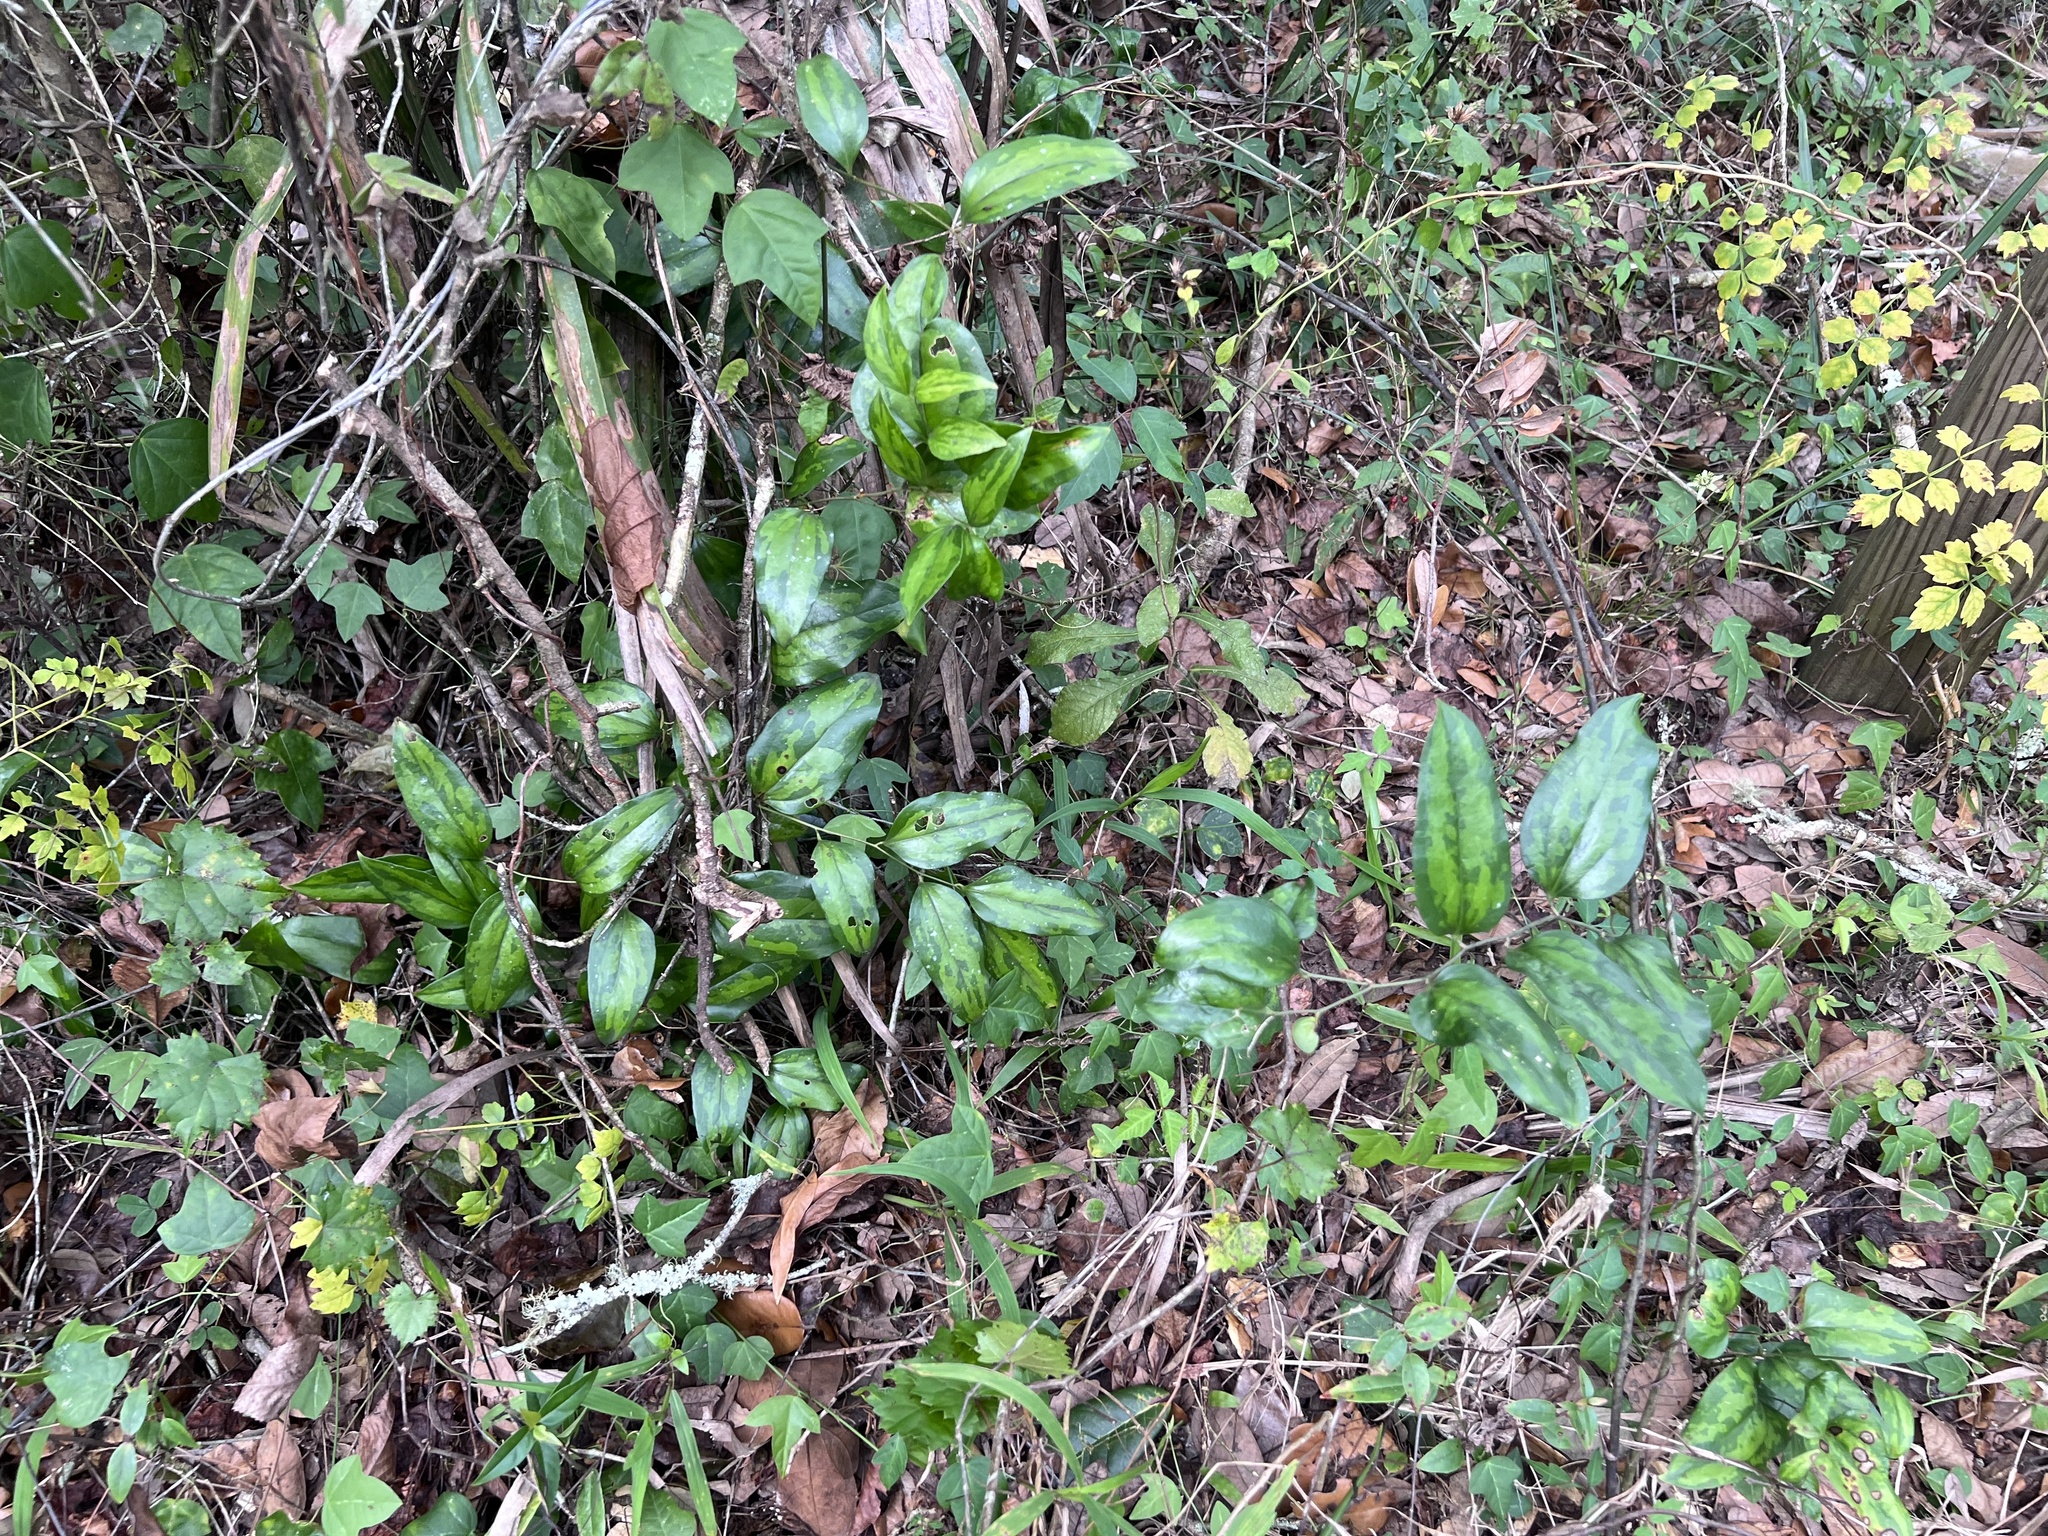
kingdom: Plantae
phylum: Tracheophyta
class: Liliopsida
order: Liliales
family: Smilacaceae
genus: Smilax
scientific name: Smilax maritima
